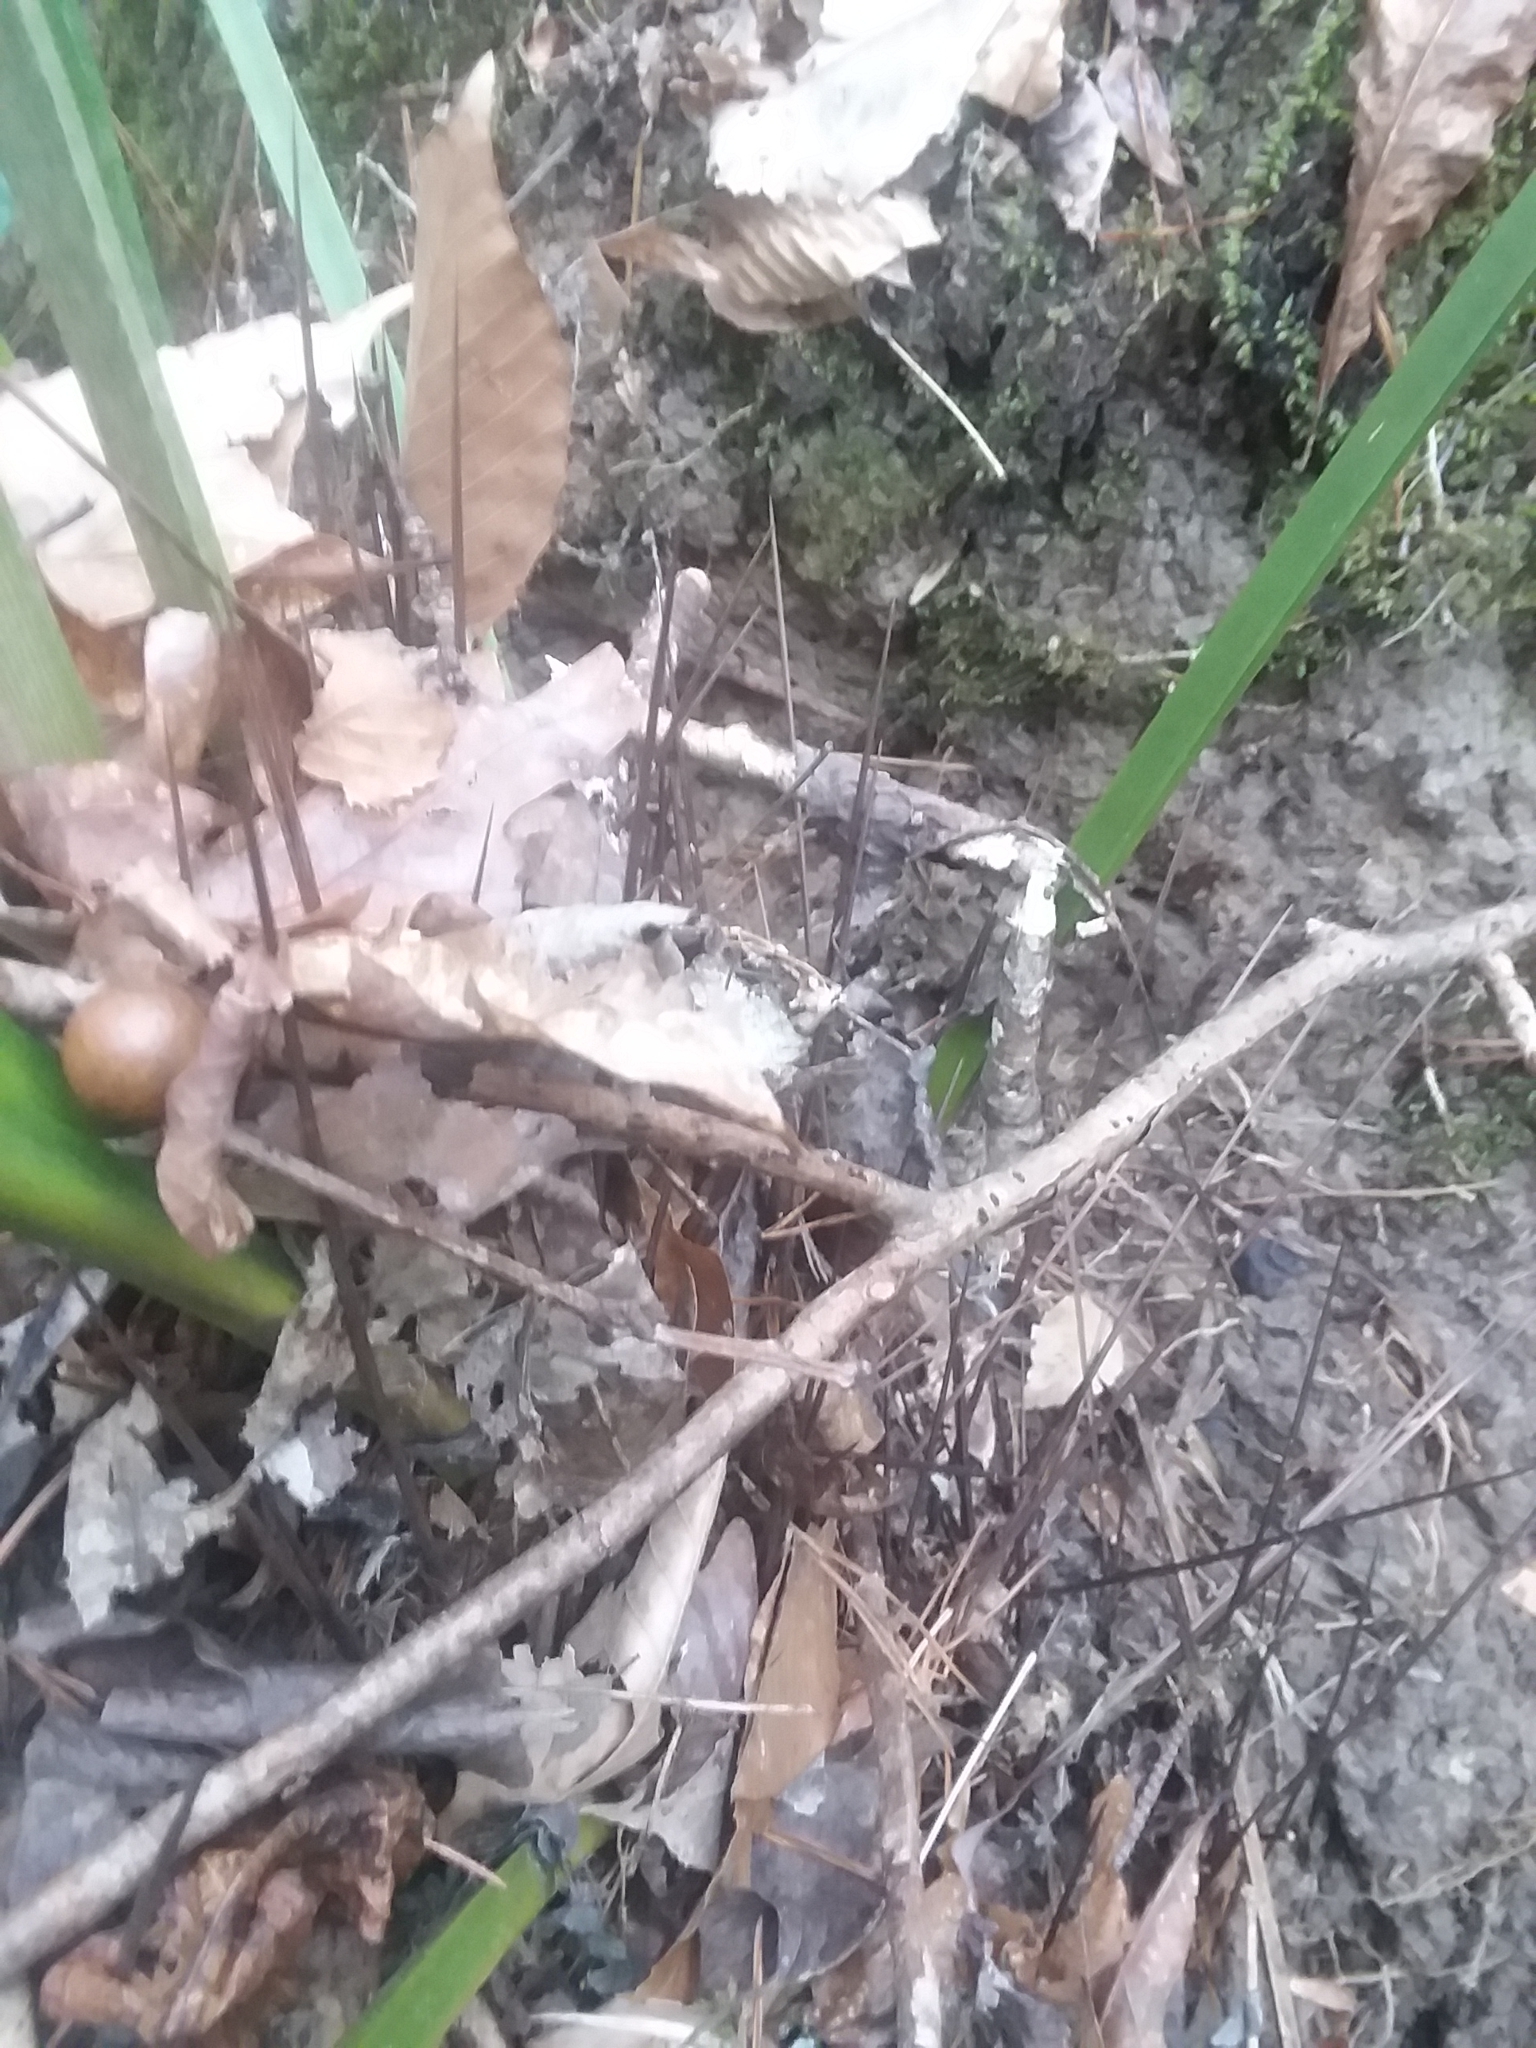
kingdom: Plantae
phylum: Tracheophyta
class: Liliopsida
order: Arecales
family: Arecaceae
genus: Rhapidophyllum
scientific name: Rhapidophyllum hystrix
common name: Porcupine palm
